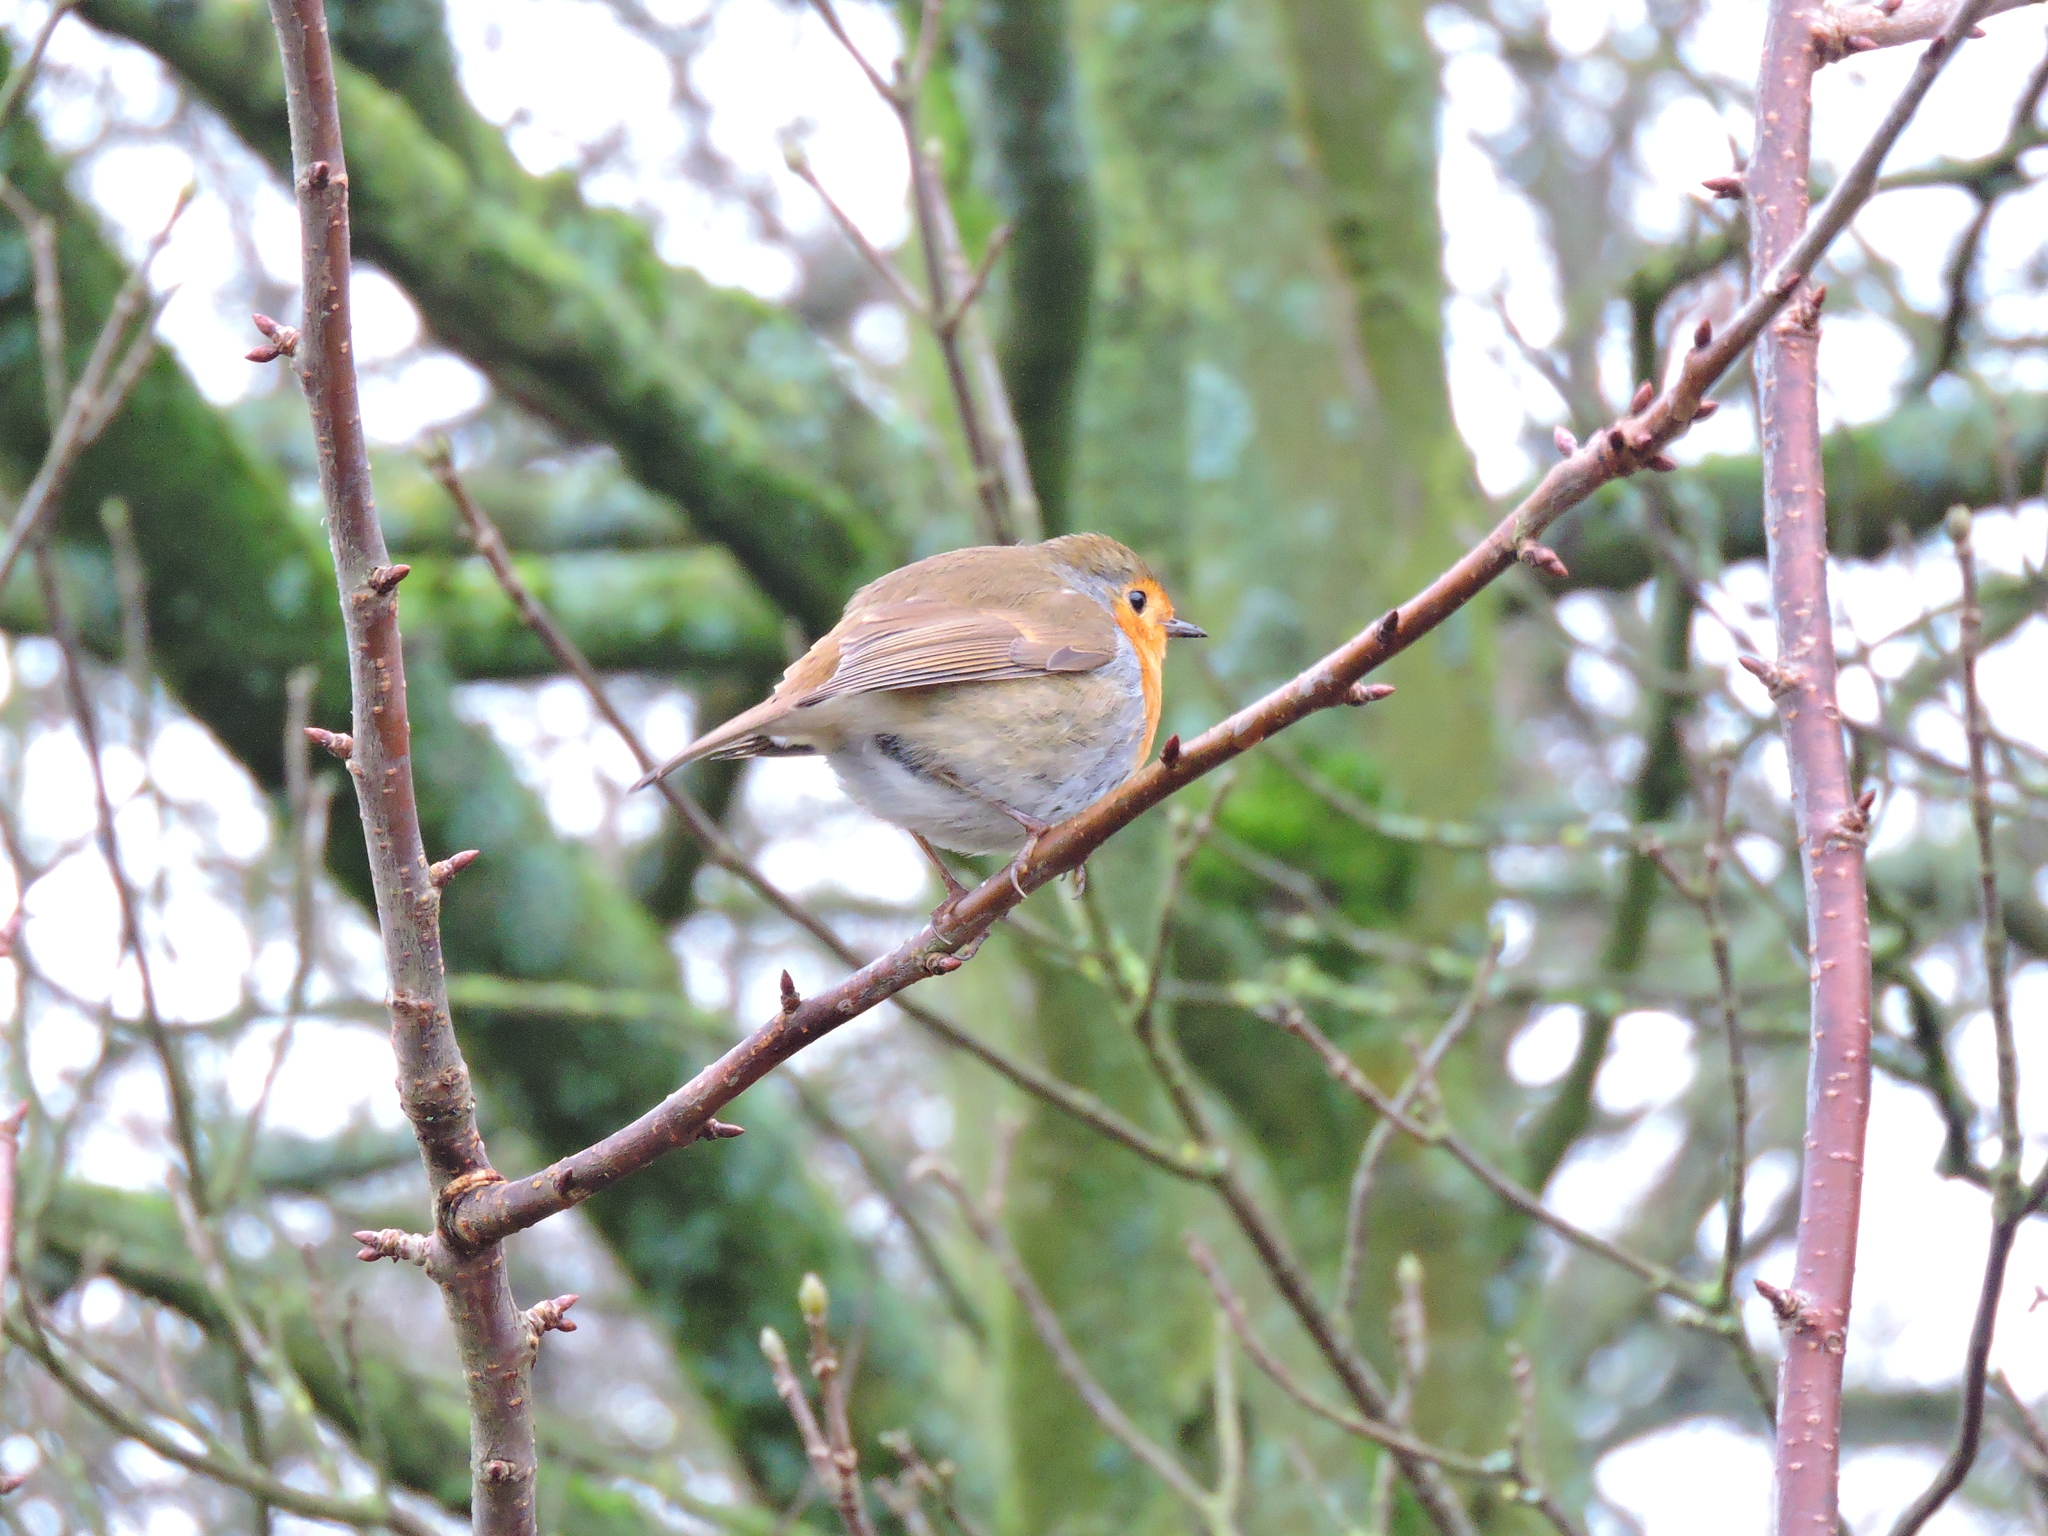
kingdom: Animalia
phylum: Chordata
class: Aves
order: Passeriformes
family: Muscicapidae
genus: Erithacus
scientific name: Erithacus rubecula
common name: European robin
